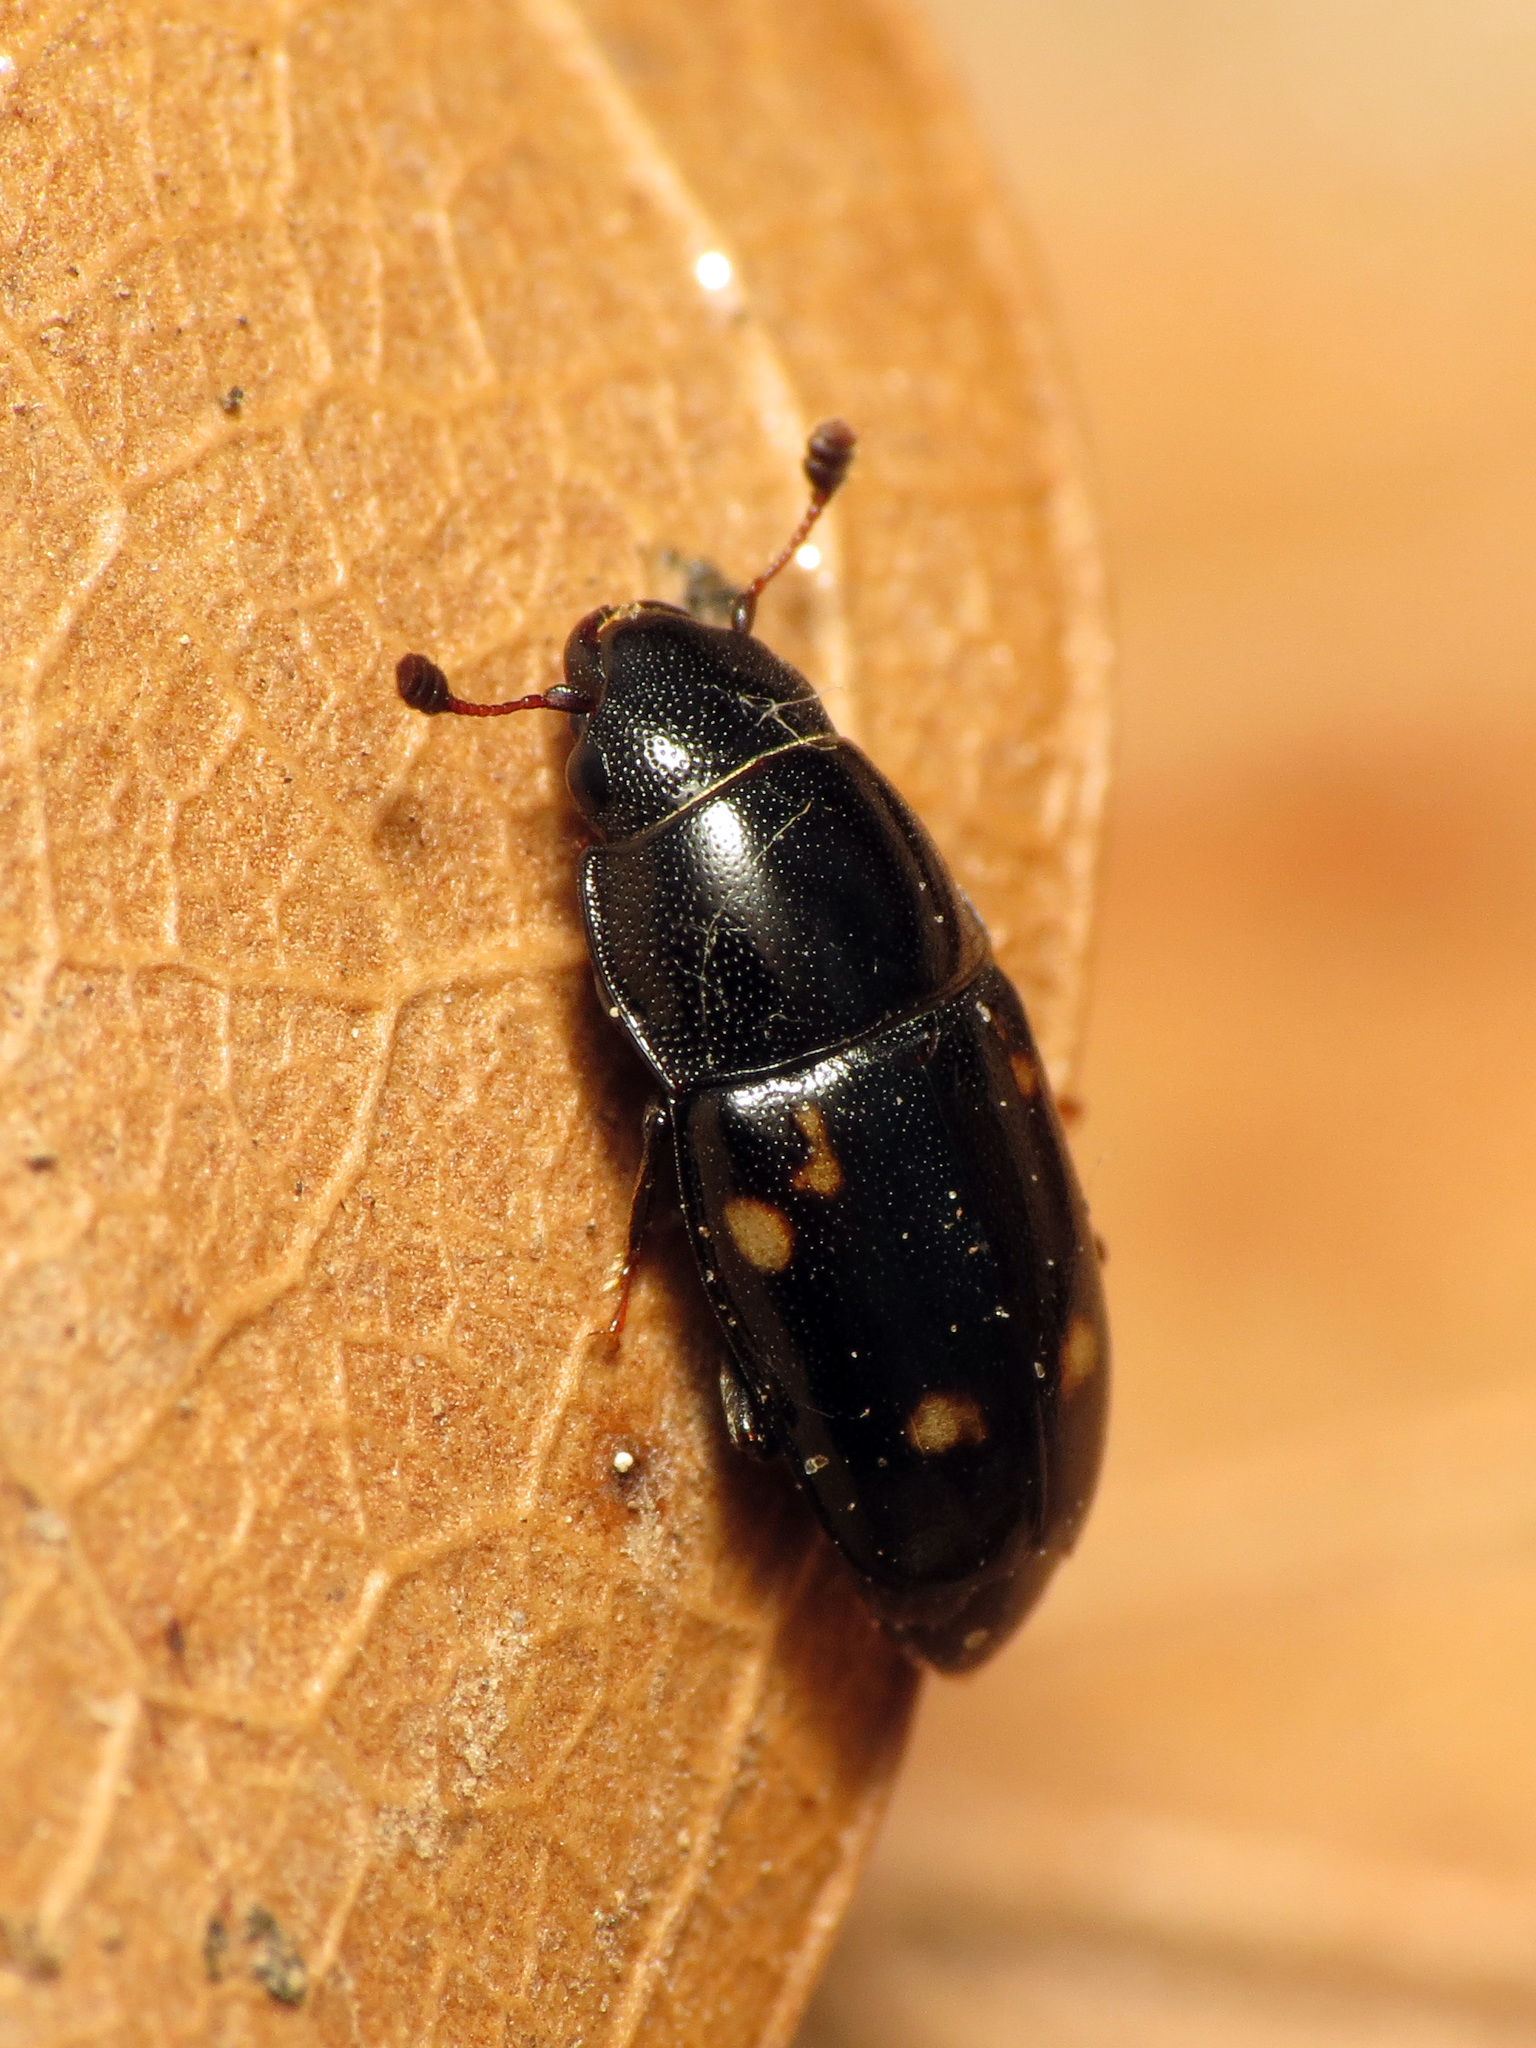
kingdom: Animalia
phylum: Arthropoda
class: Insecta
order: Coleoptera
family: Nitidulidae
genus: Glischrochilus
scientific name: Glischrochilus quadrisignatus
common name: Picnic beetle
